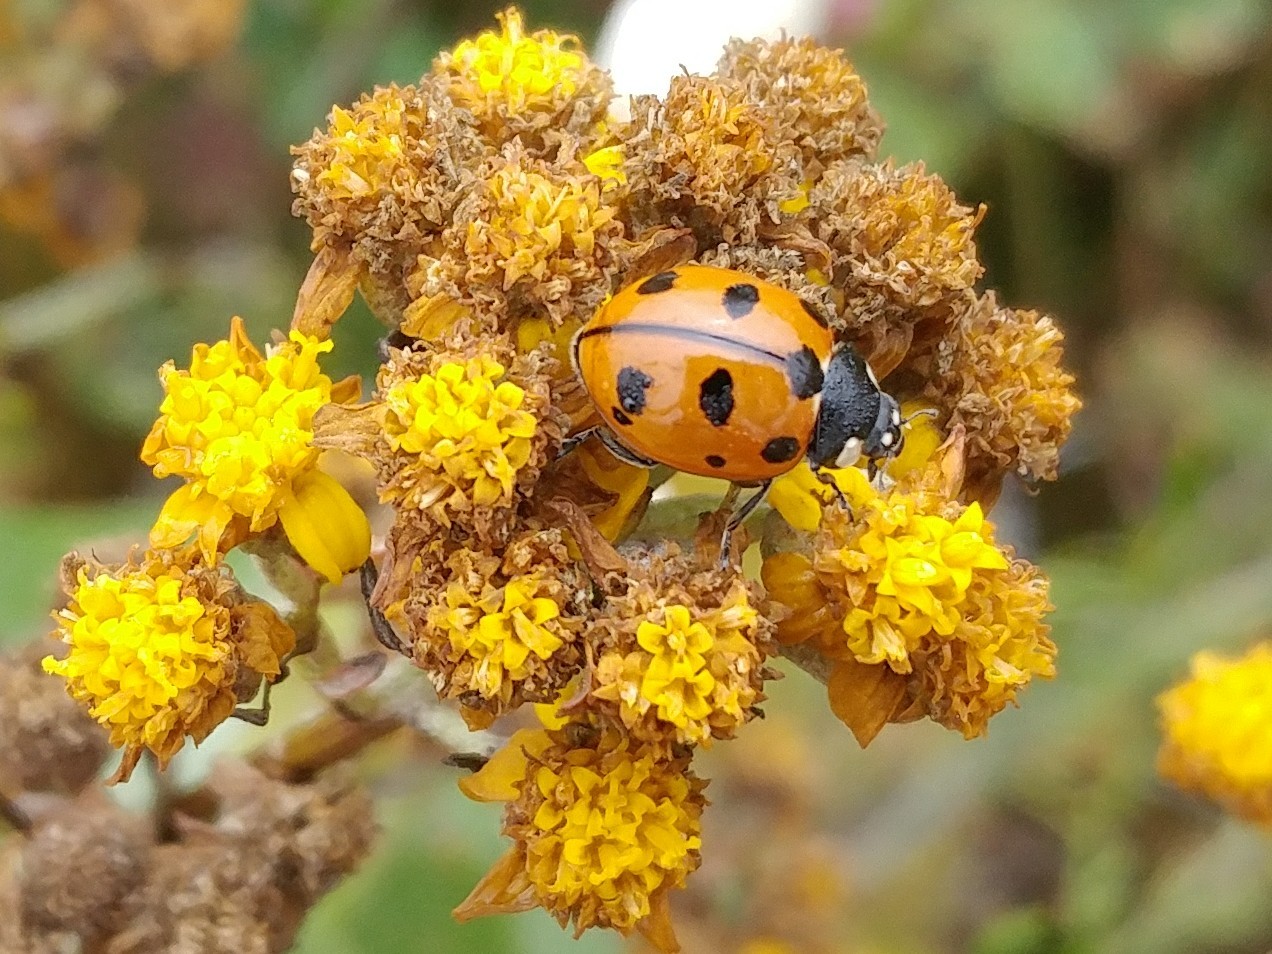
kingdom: Animalia
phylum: Arthropoda
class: Insecta
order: Coleoptera
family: Coccinellidae
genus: Coccinella
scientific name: Coccinella californica
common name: Lady beetle
